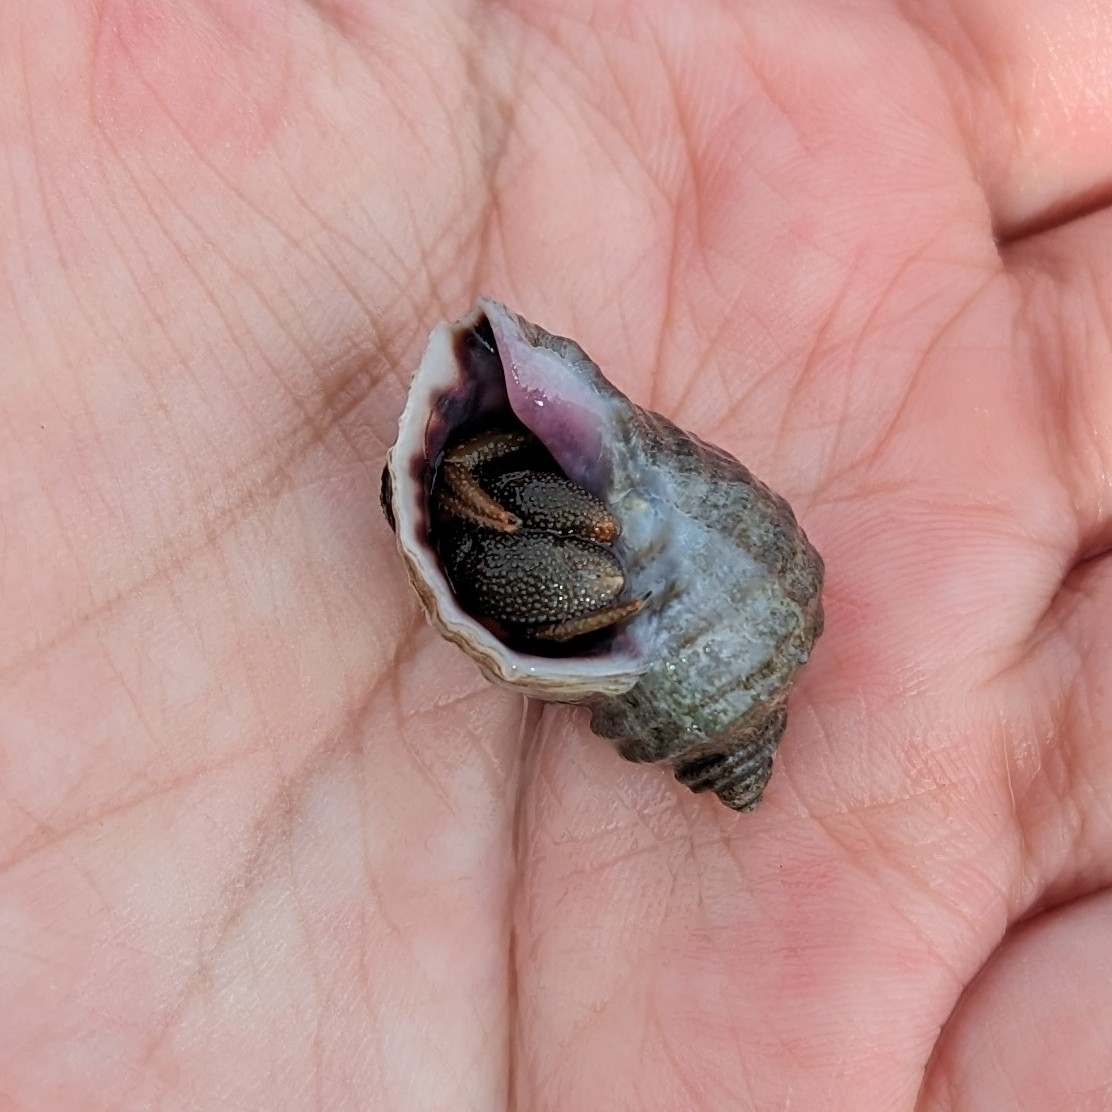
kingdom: Animalia
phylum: Arthropoda
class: Malacostraca
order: Decapoda
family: Paguridae
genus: Pagurus
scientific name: Pagurus granosimanus
